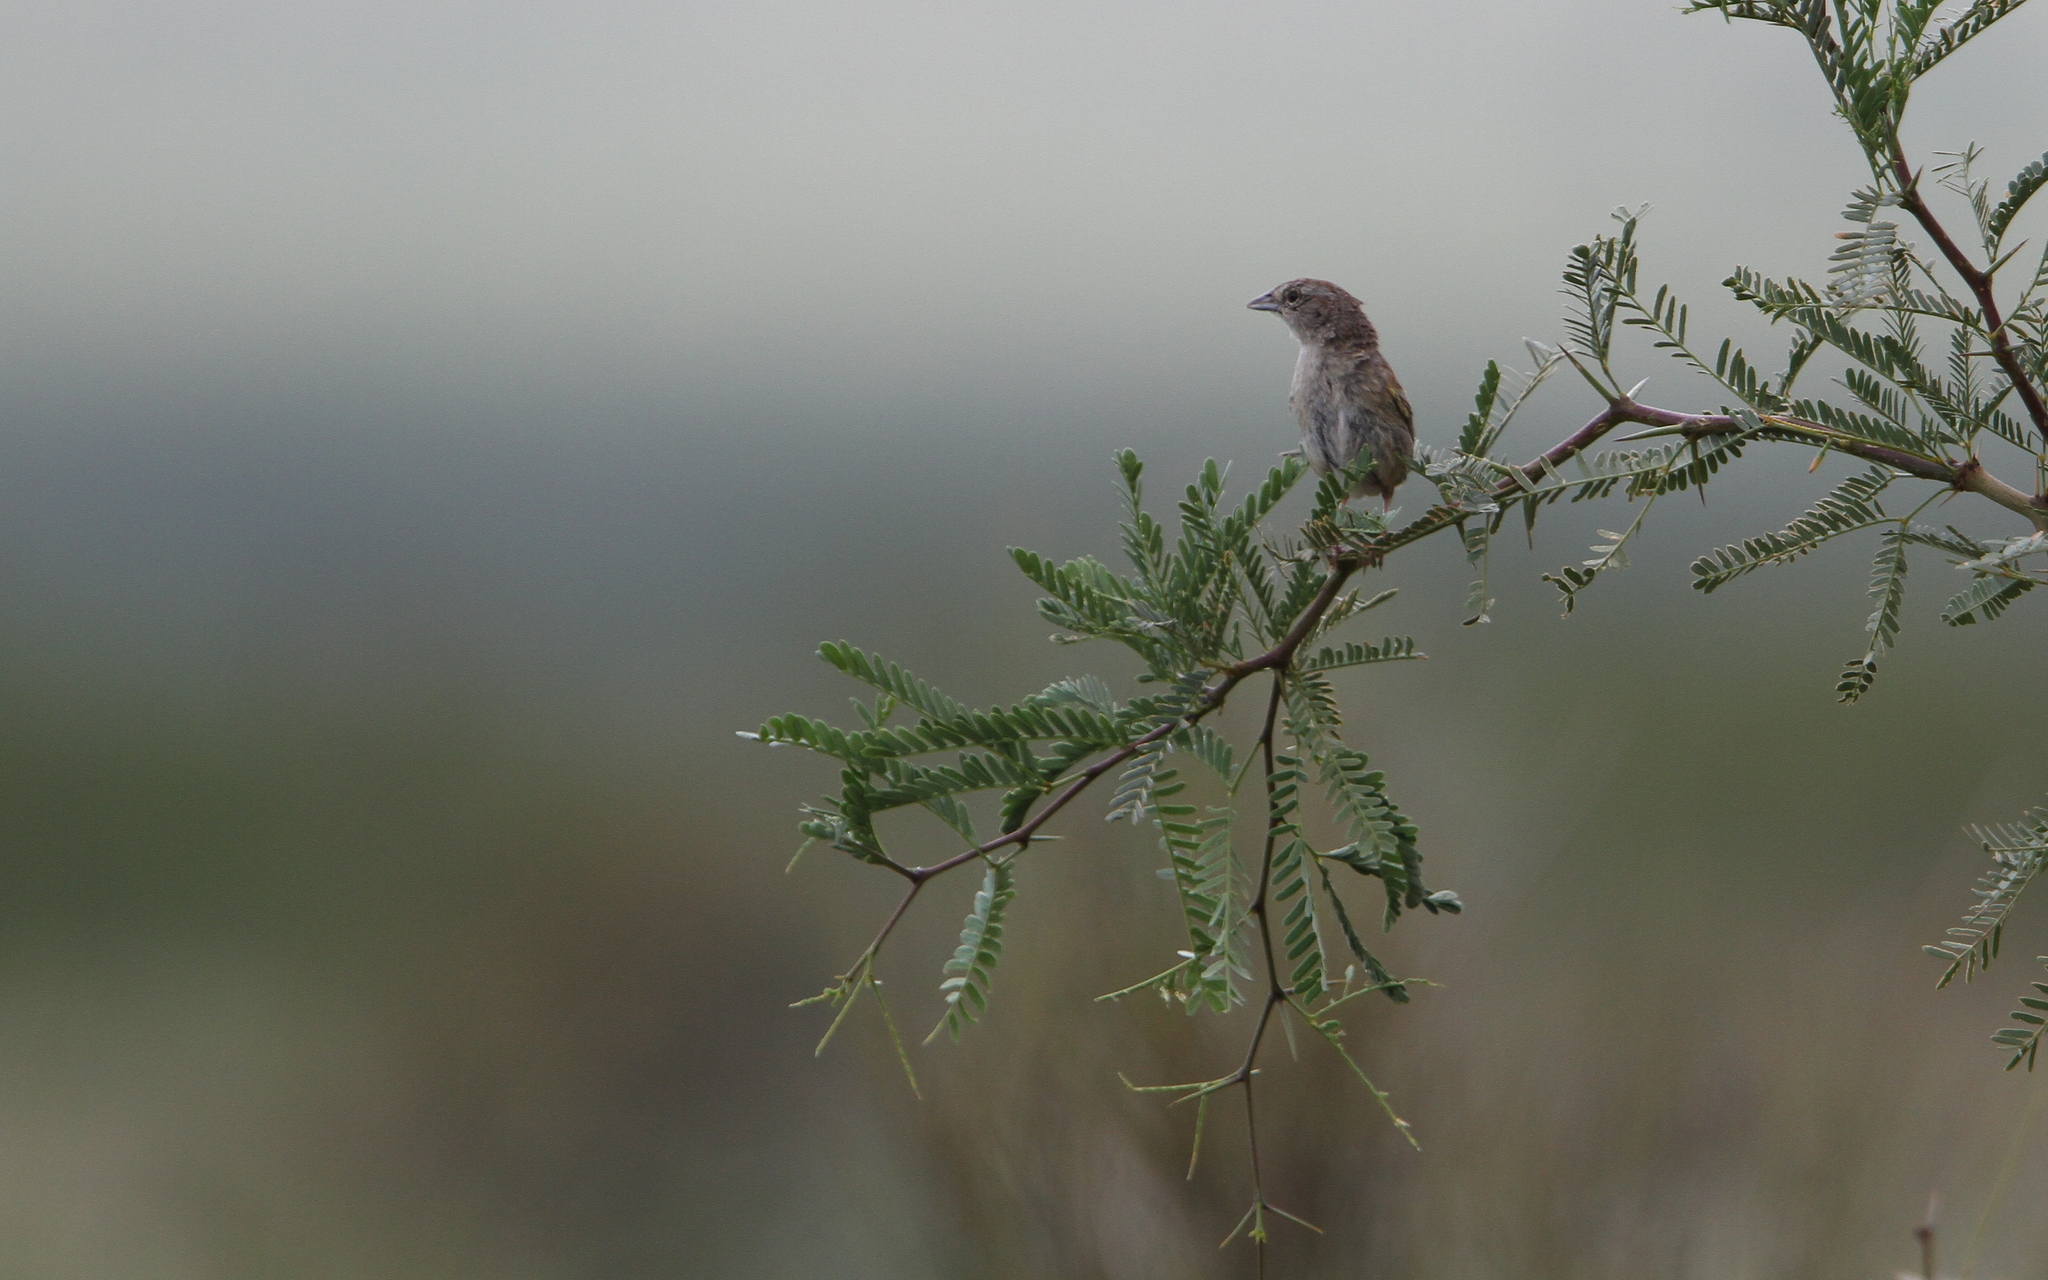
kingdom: Animalia
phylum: Chordata
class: Aves
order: Passeriformes
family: Passerellidae
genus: Peucaea
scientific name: Peucaea botterii
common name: Botteri's sparrow
